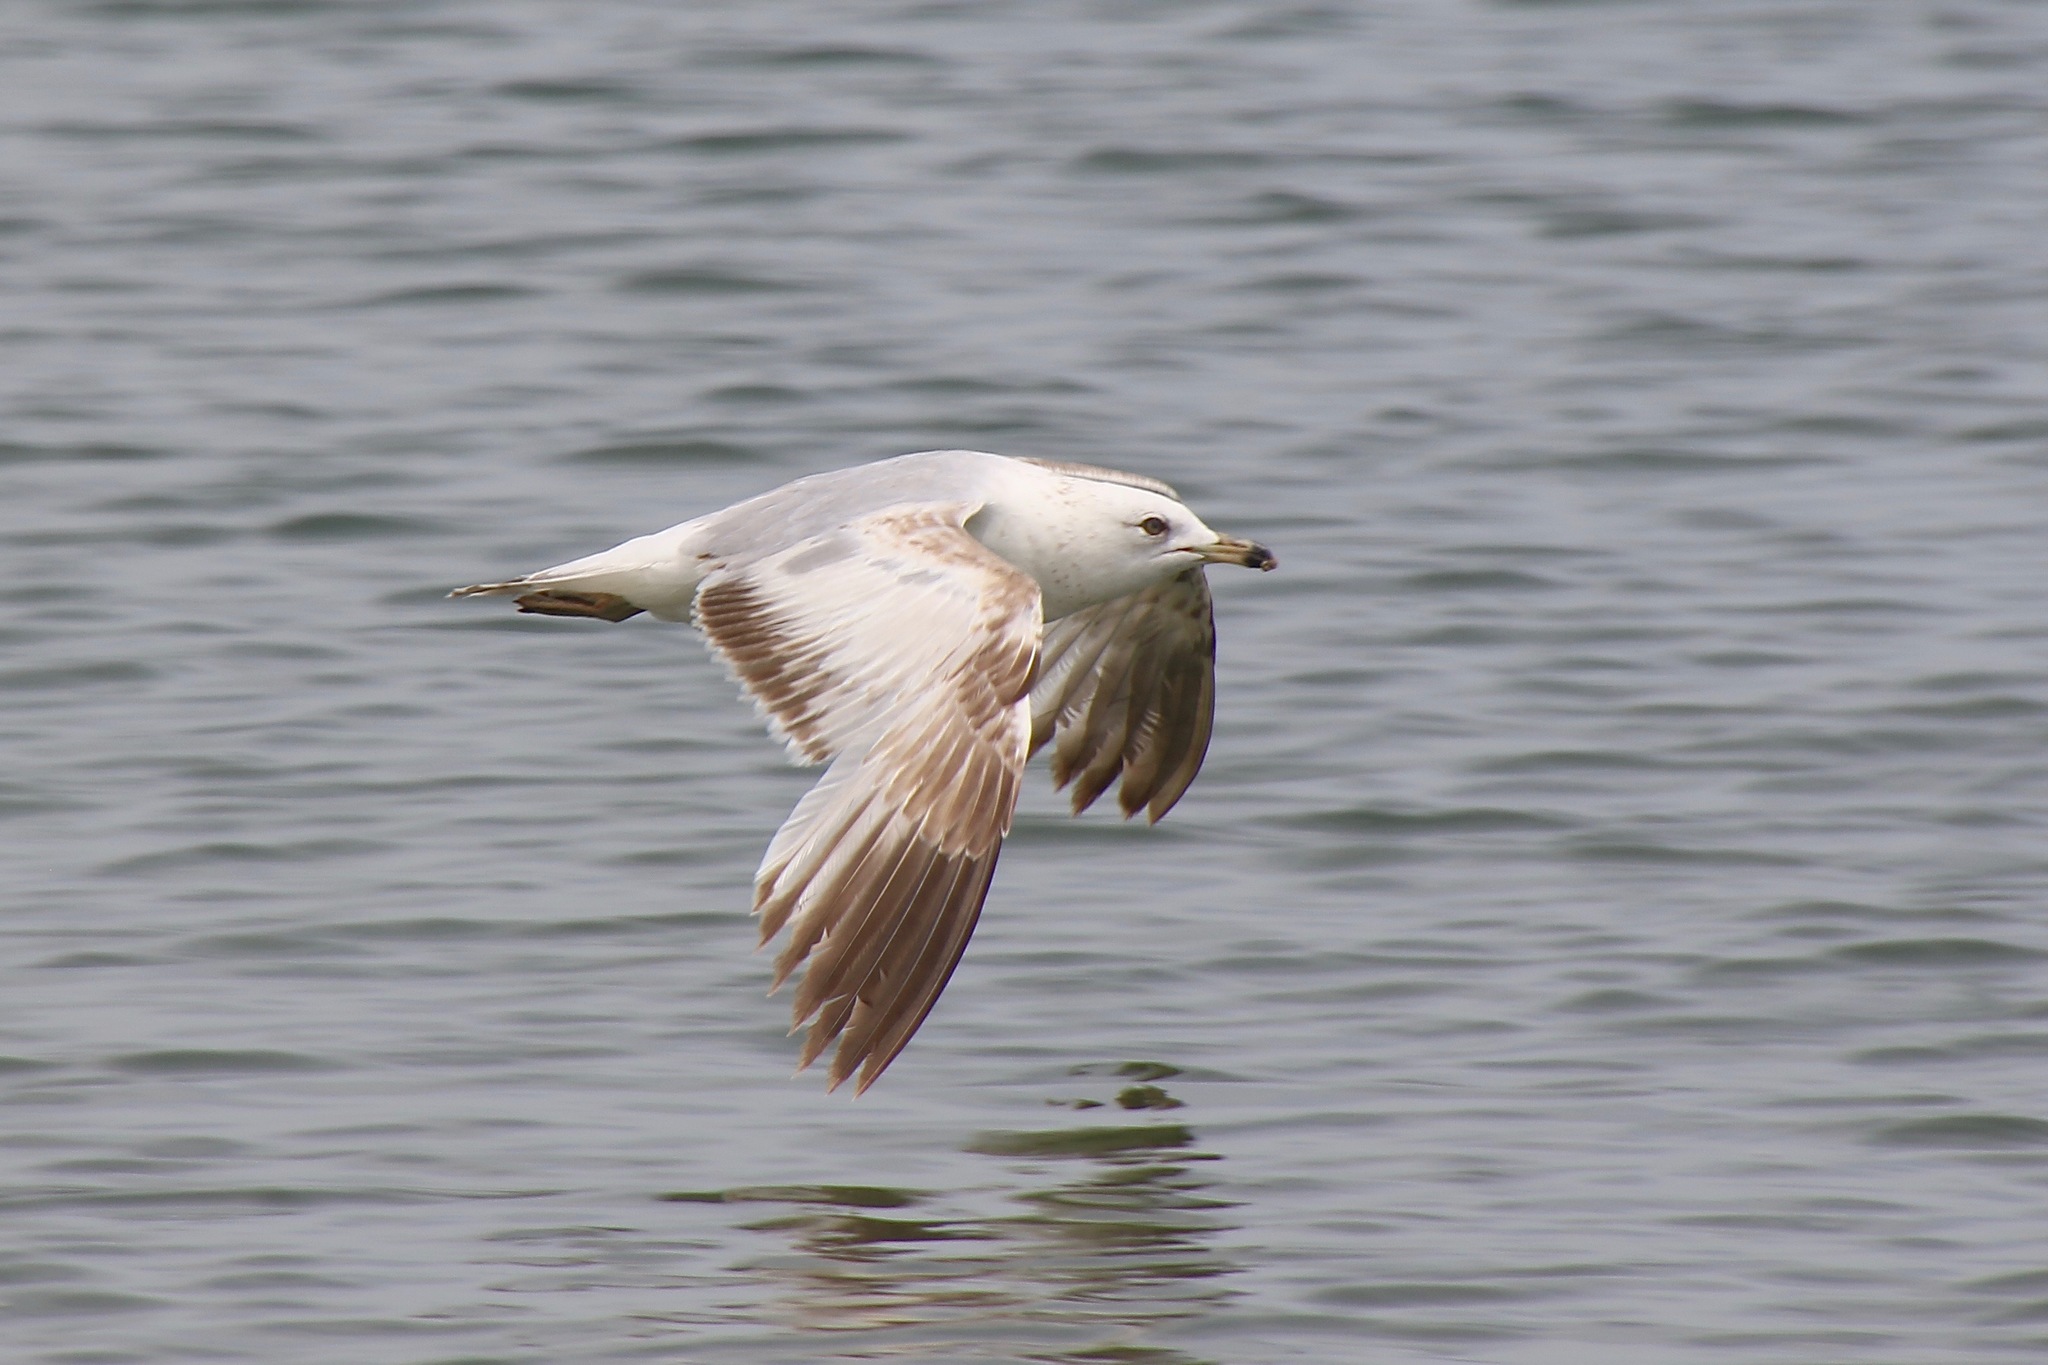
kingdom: Animalia
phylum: Chordata
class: Aves
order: Charadriiformes
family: Laridae
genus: Larus
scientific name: Larus delawarensis
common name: Ring-billed gull
